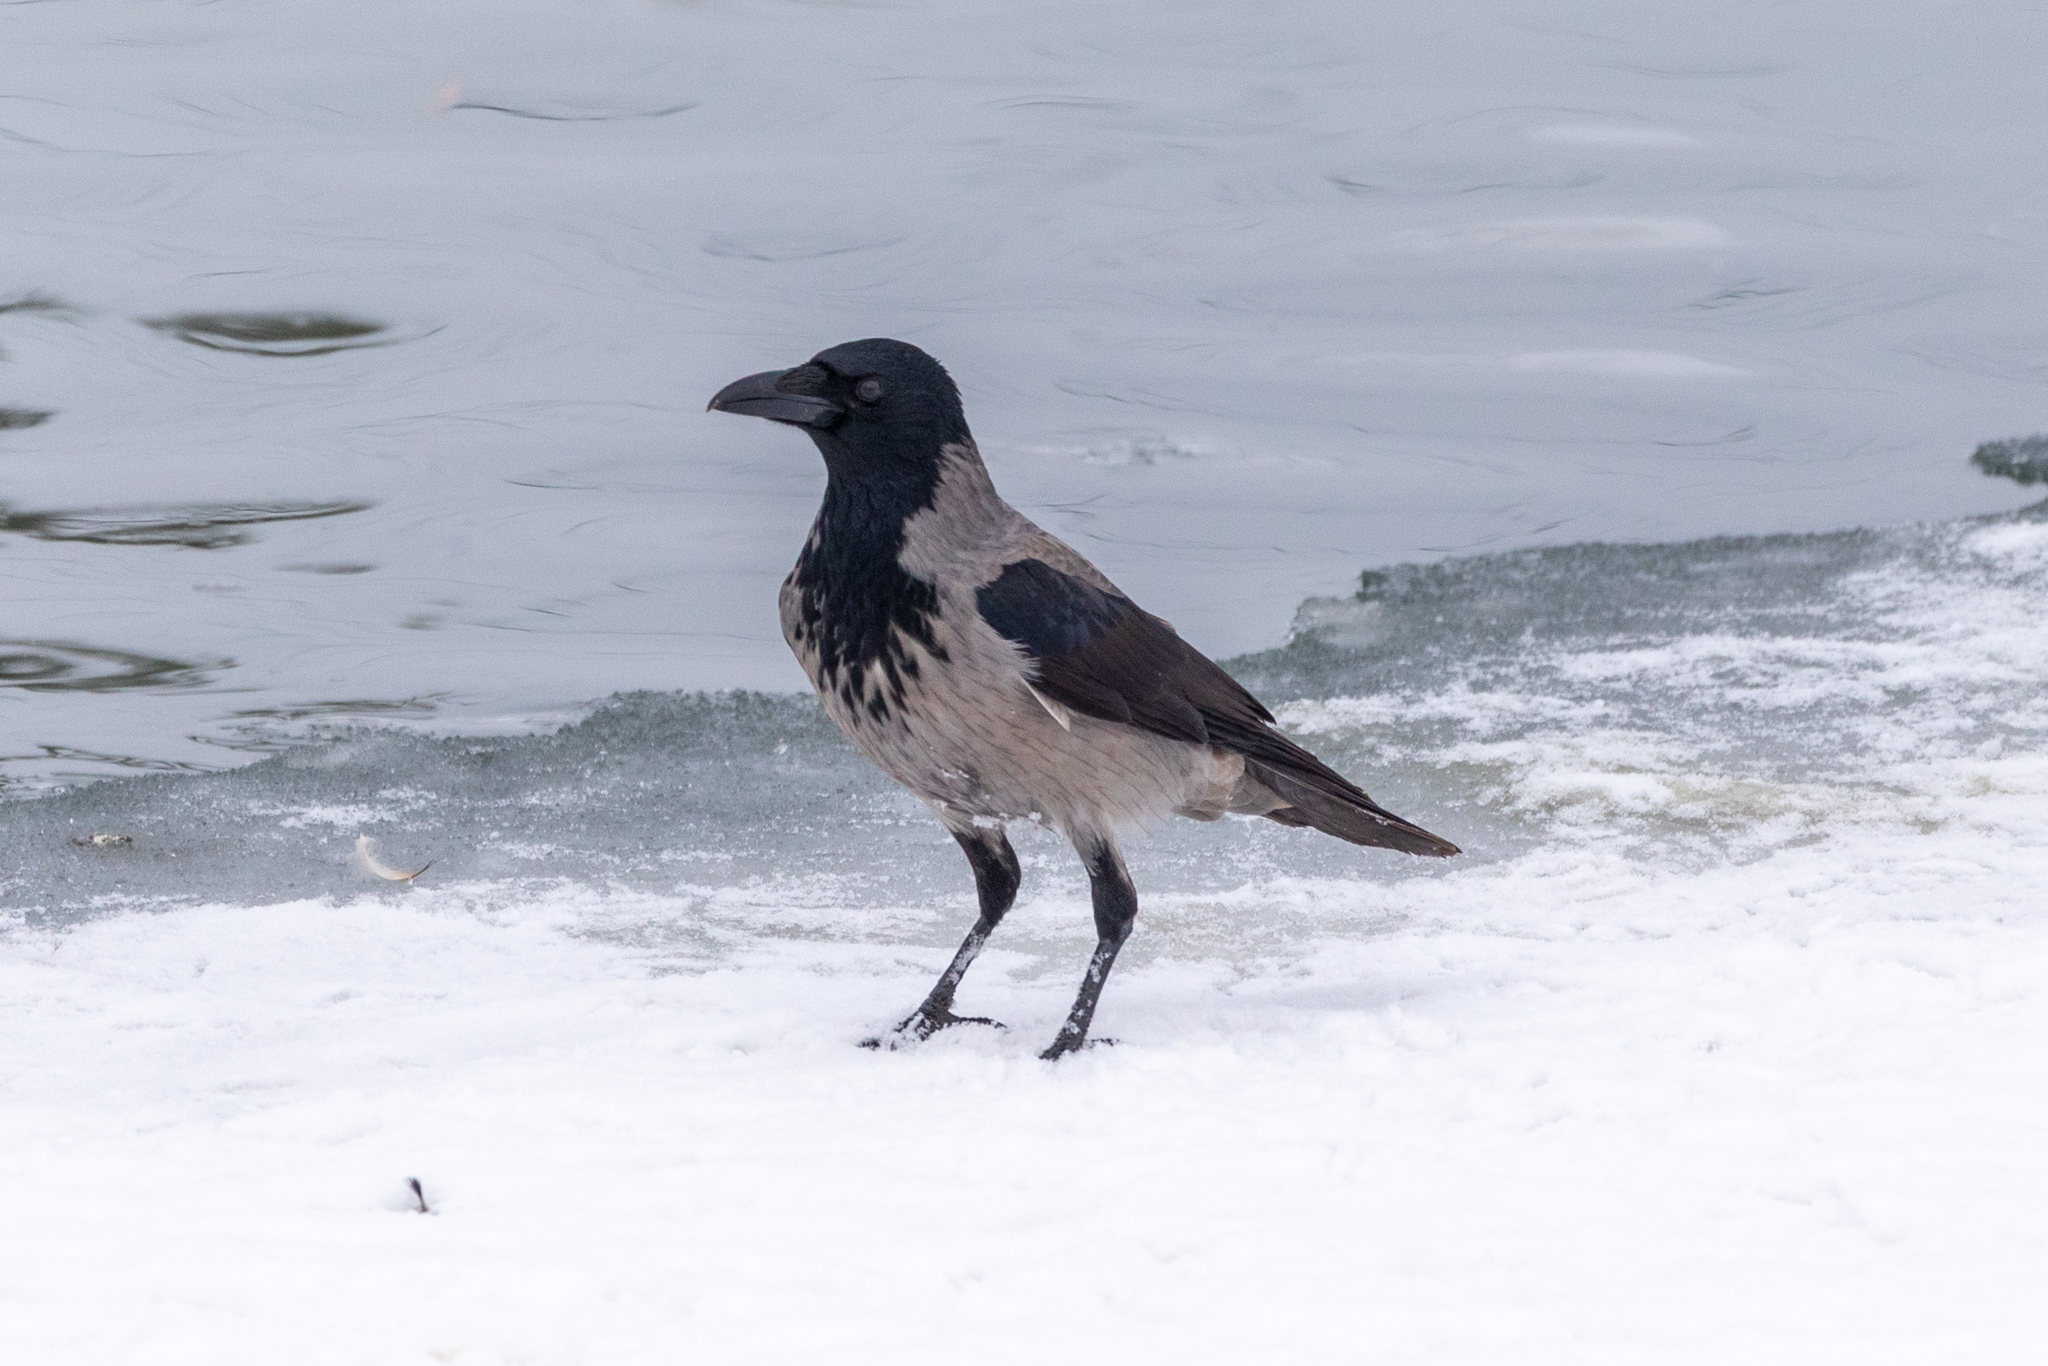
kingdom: Animalia
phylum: Chordata
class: Aves
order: Passeriformes
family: Corvidae
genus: Corvus
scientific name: Corvus cornix
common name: Hooded crow
